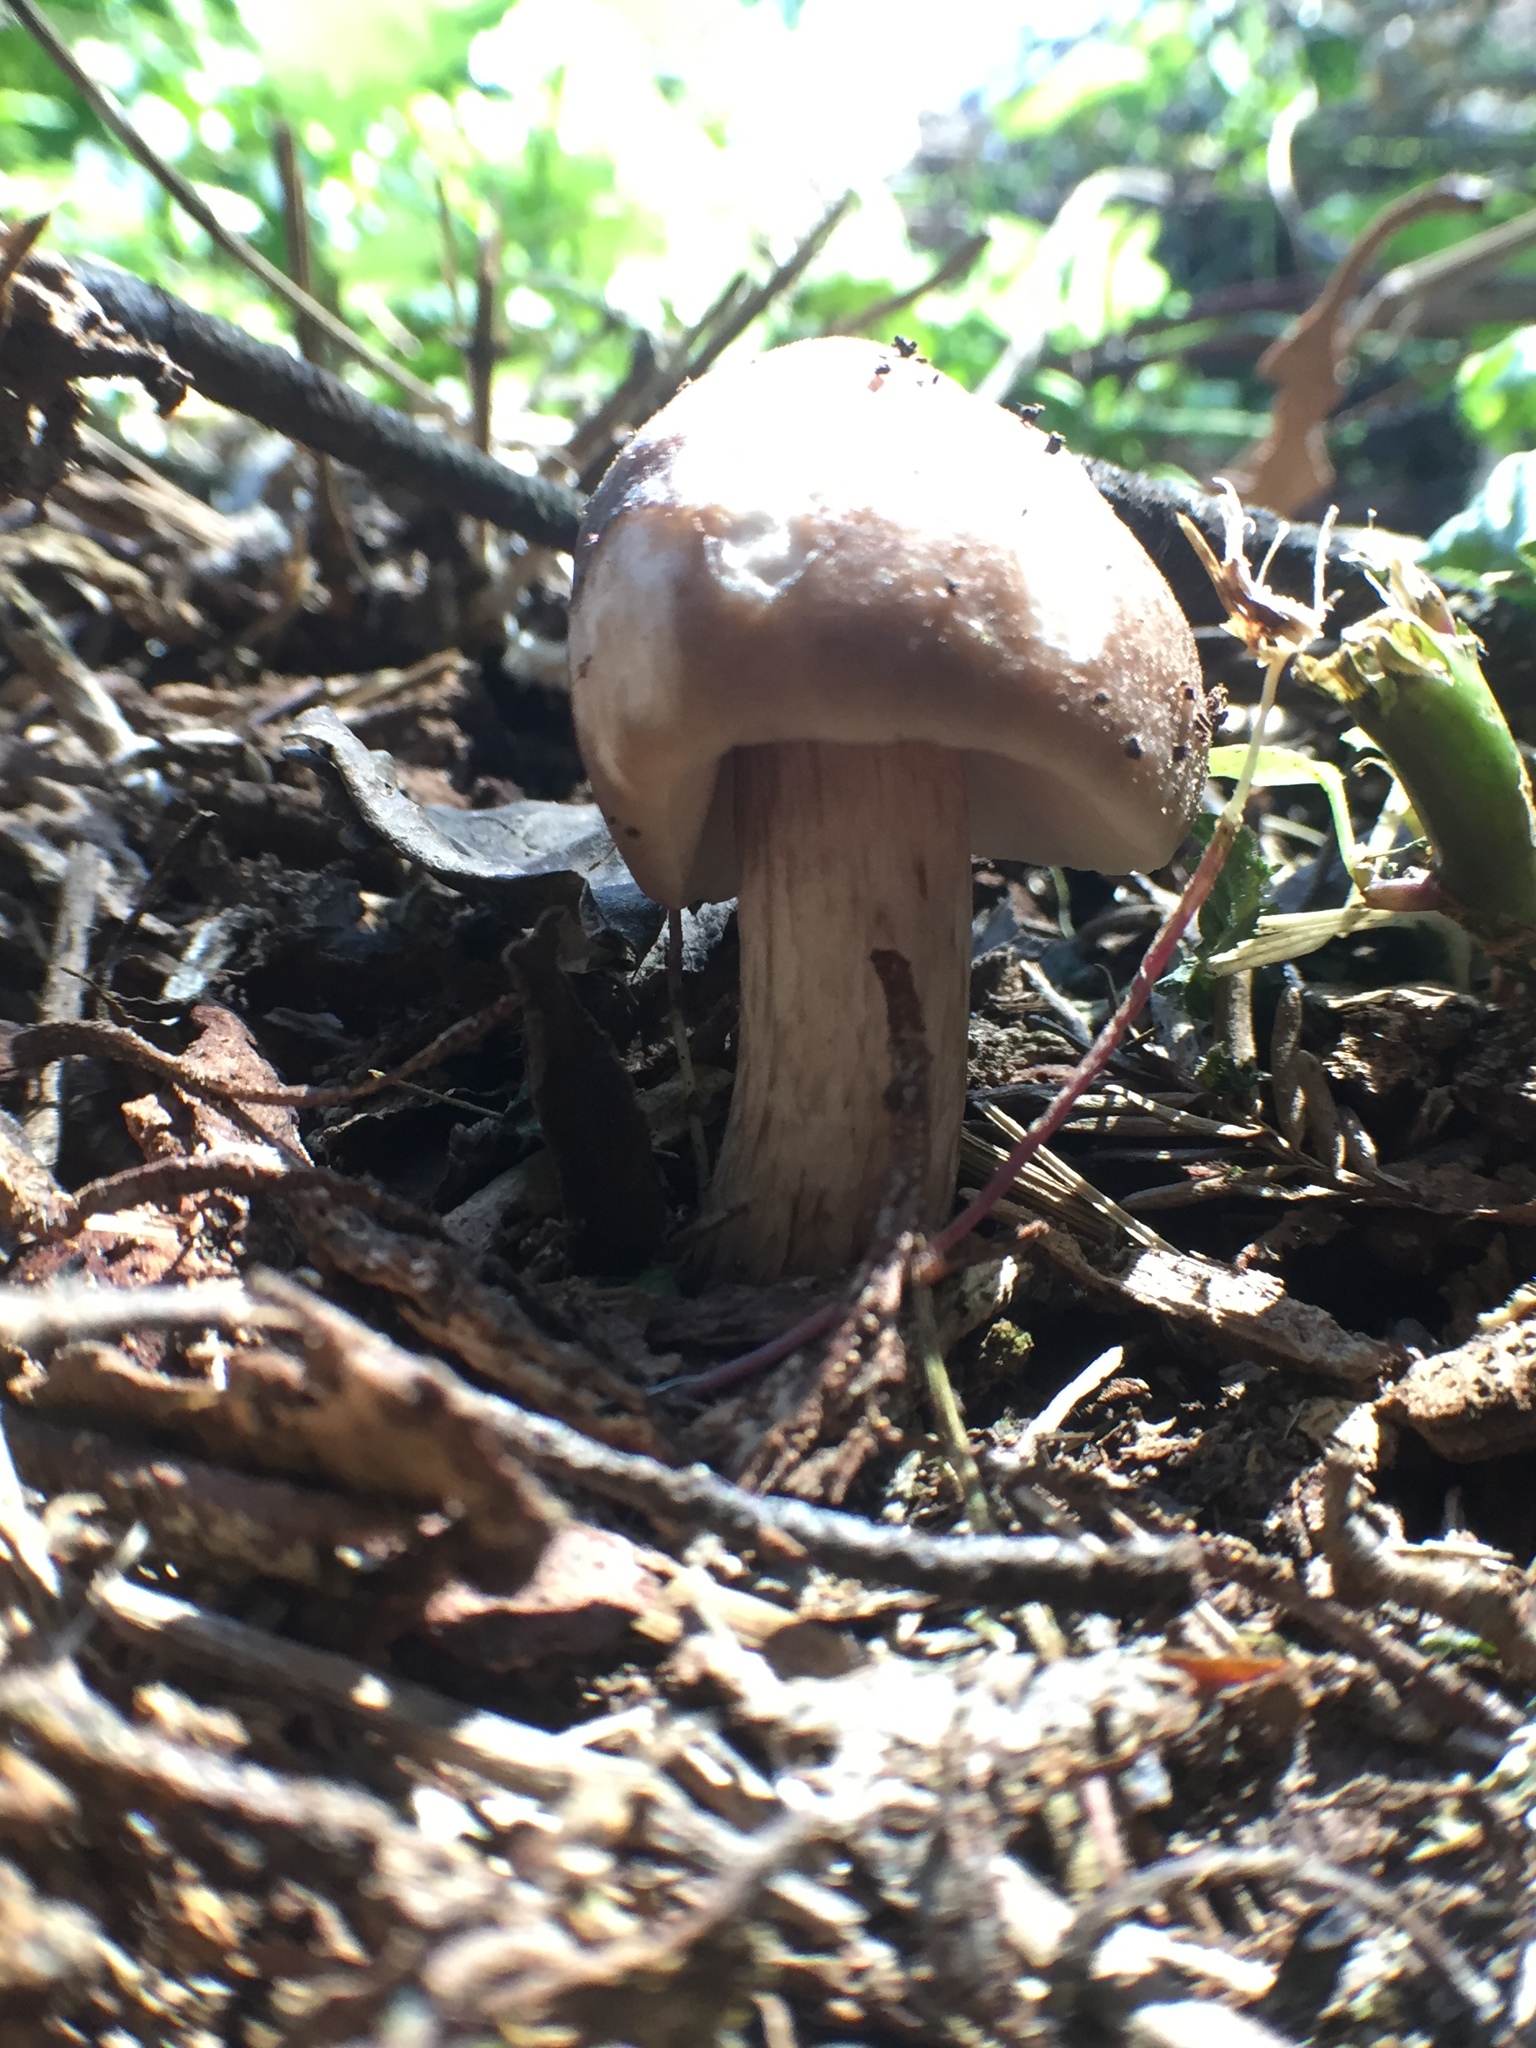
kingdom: Fungi
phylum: Basidiomycota
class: Agaricomycetes
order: Agaricales
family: Pluteaceae
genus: Pluteus
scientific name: Pluteus exilis
